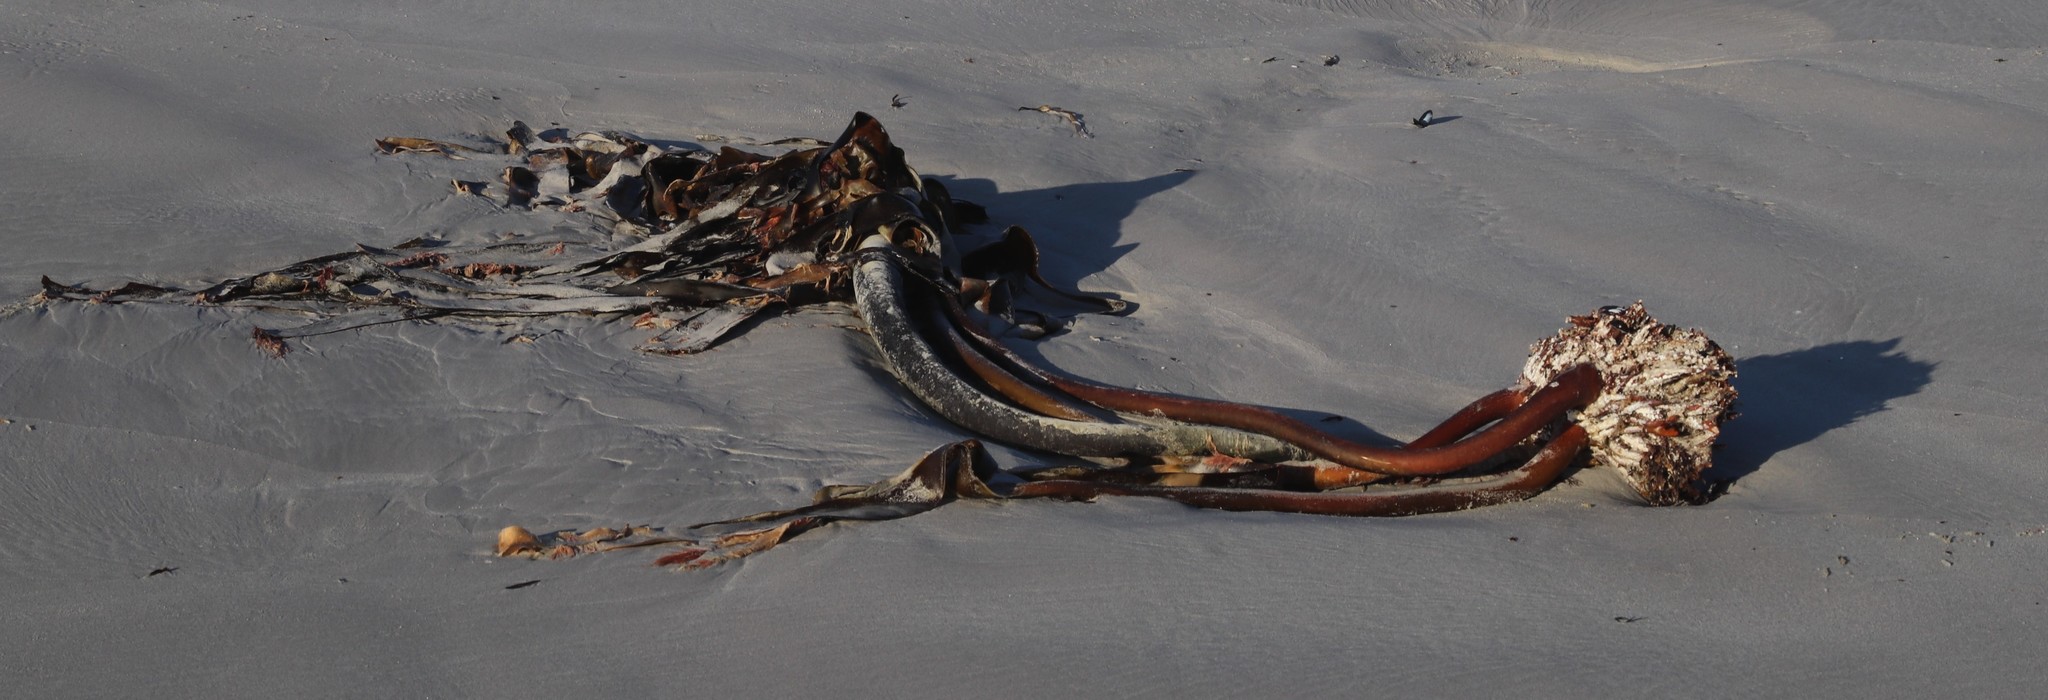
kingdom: Chromista
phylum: Ochrophyta
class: Phaeophyceae
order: Laminariales
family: Lessoniaceae
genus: Ecklonia
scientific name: Ecklonia
